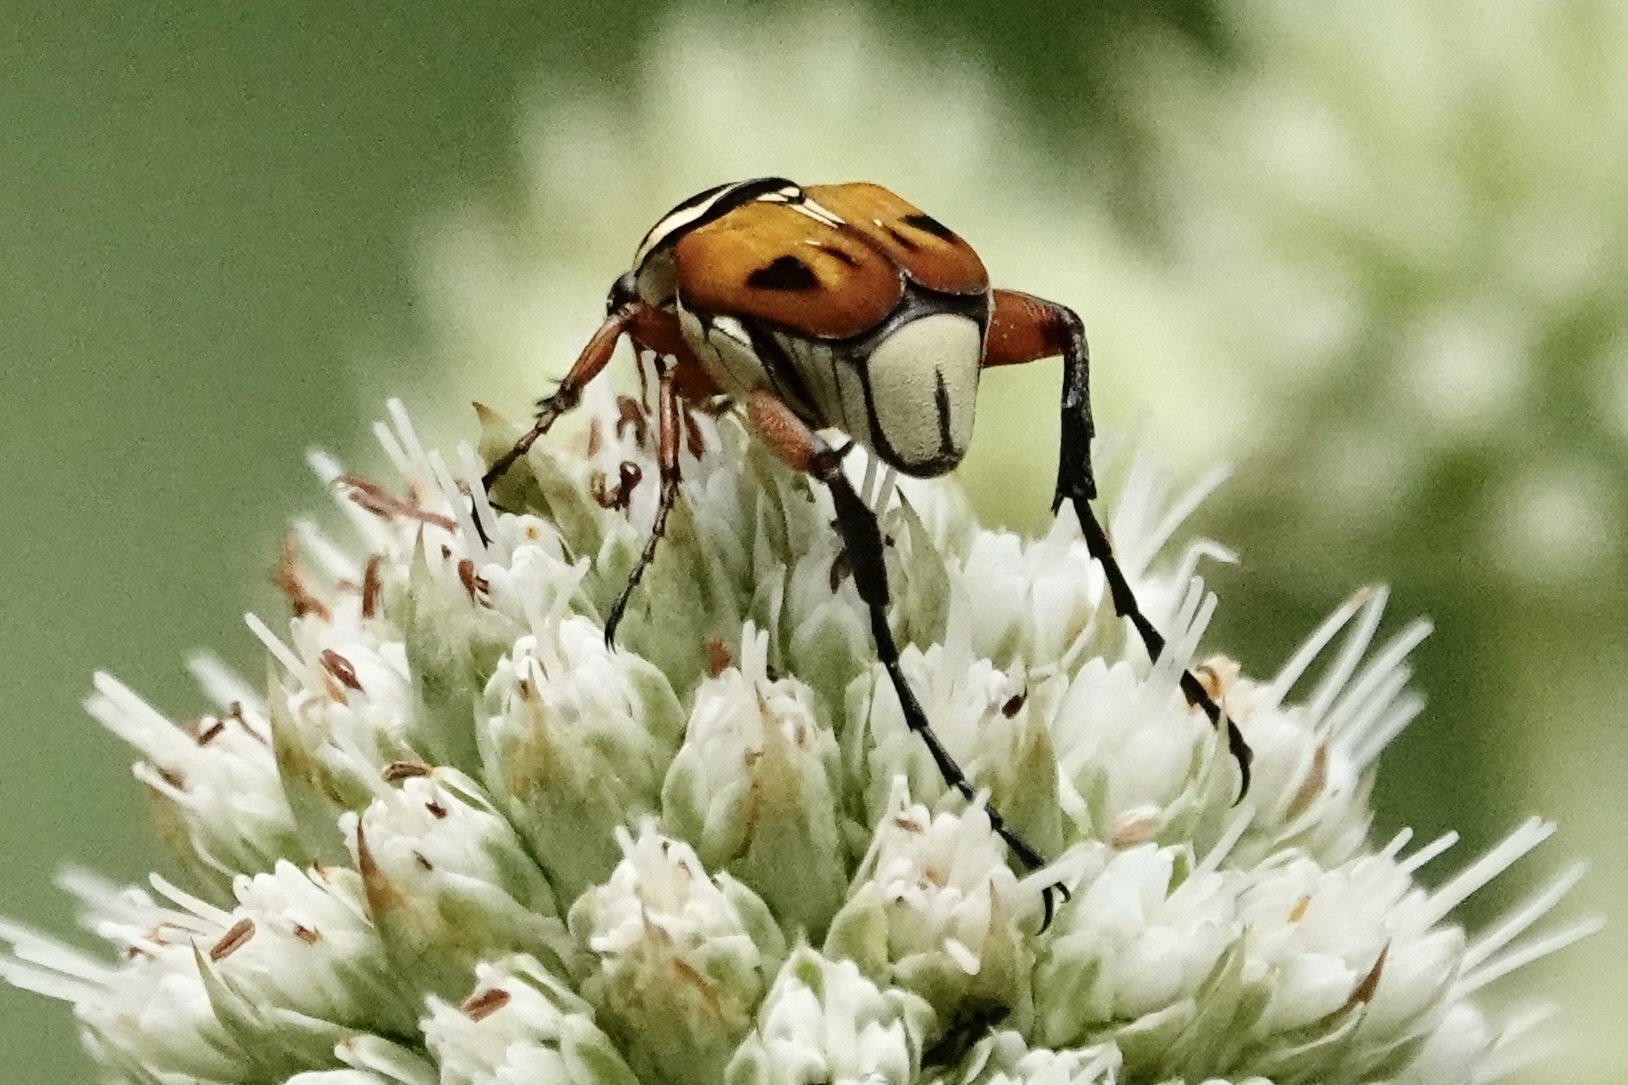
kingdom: Animalia
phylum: Arthropoda
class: Insecta
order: Coleoptera
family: Scarabaeidae
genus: Trigonopeltastes
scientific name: Trigonopeltastes delta
